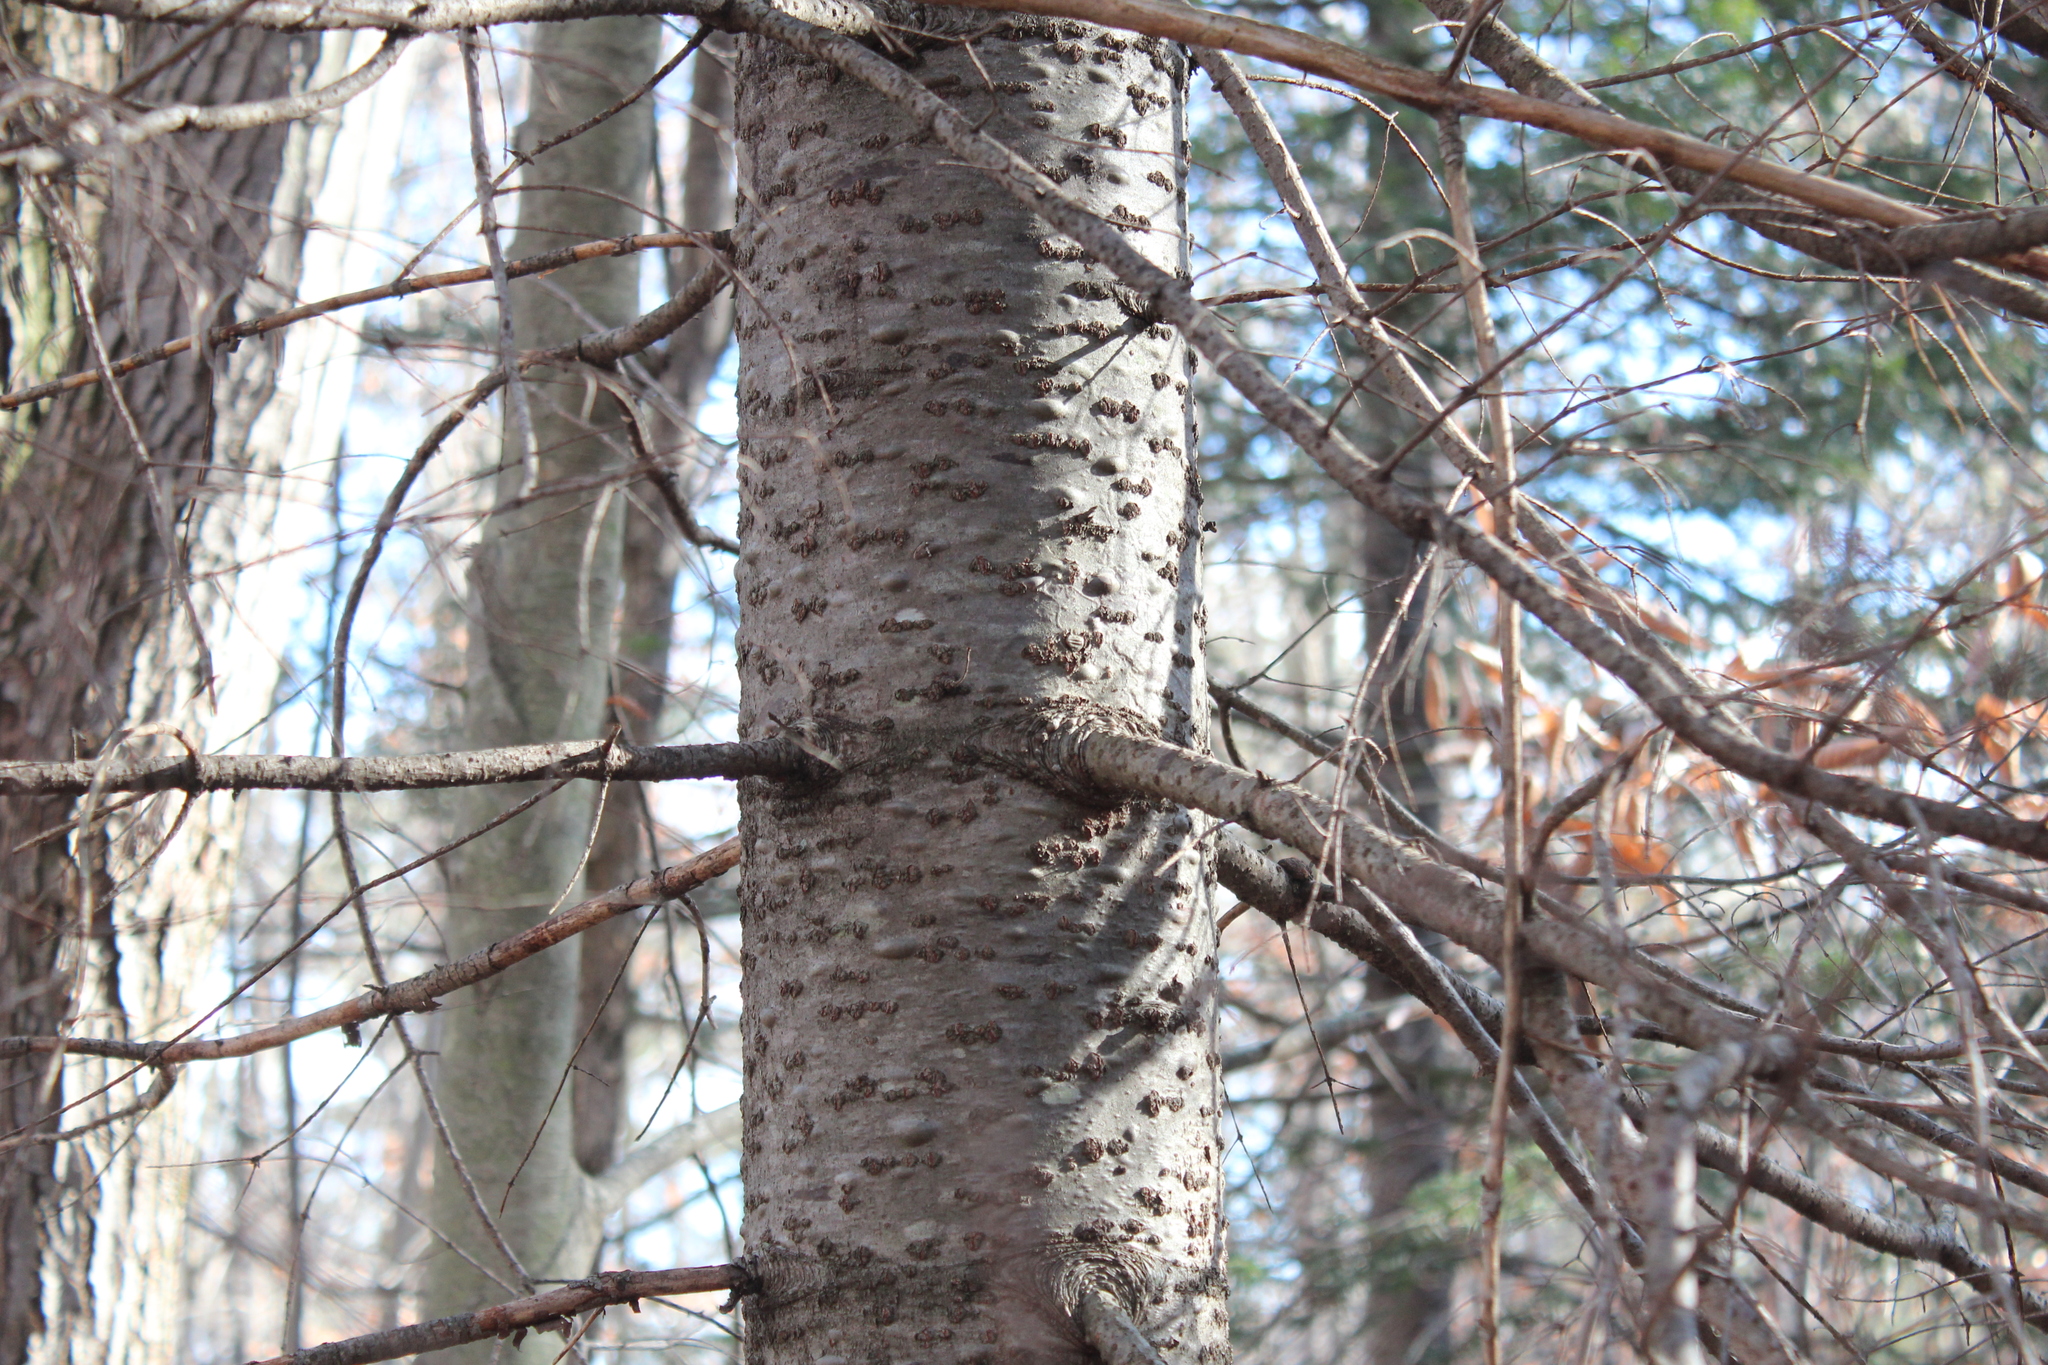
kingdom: Plantae
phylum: Tracheophyta
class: Pinopsida
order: Pinales
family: Pinaceae
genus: Abies
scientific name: Abies balsamea
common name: Balsam fir
